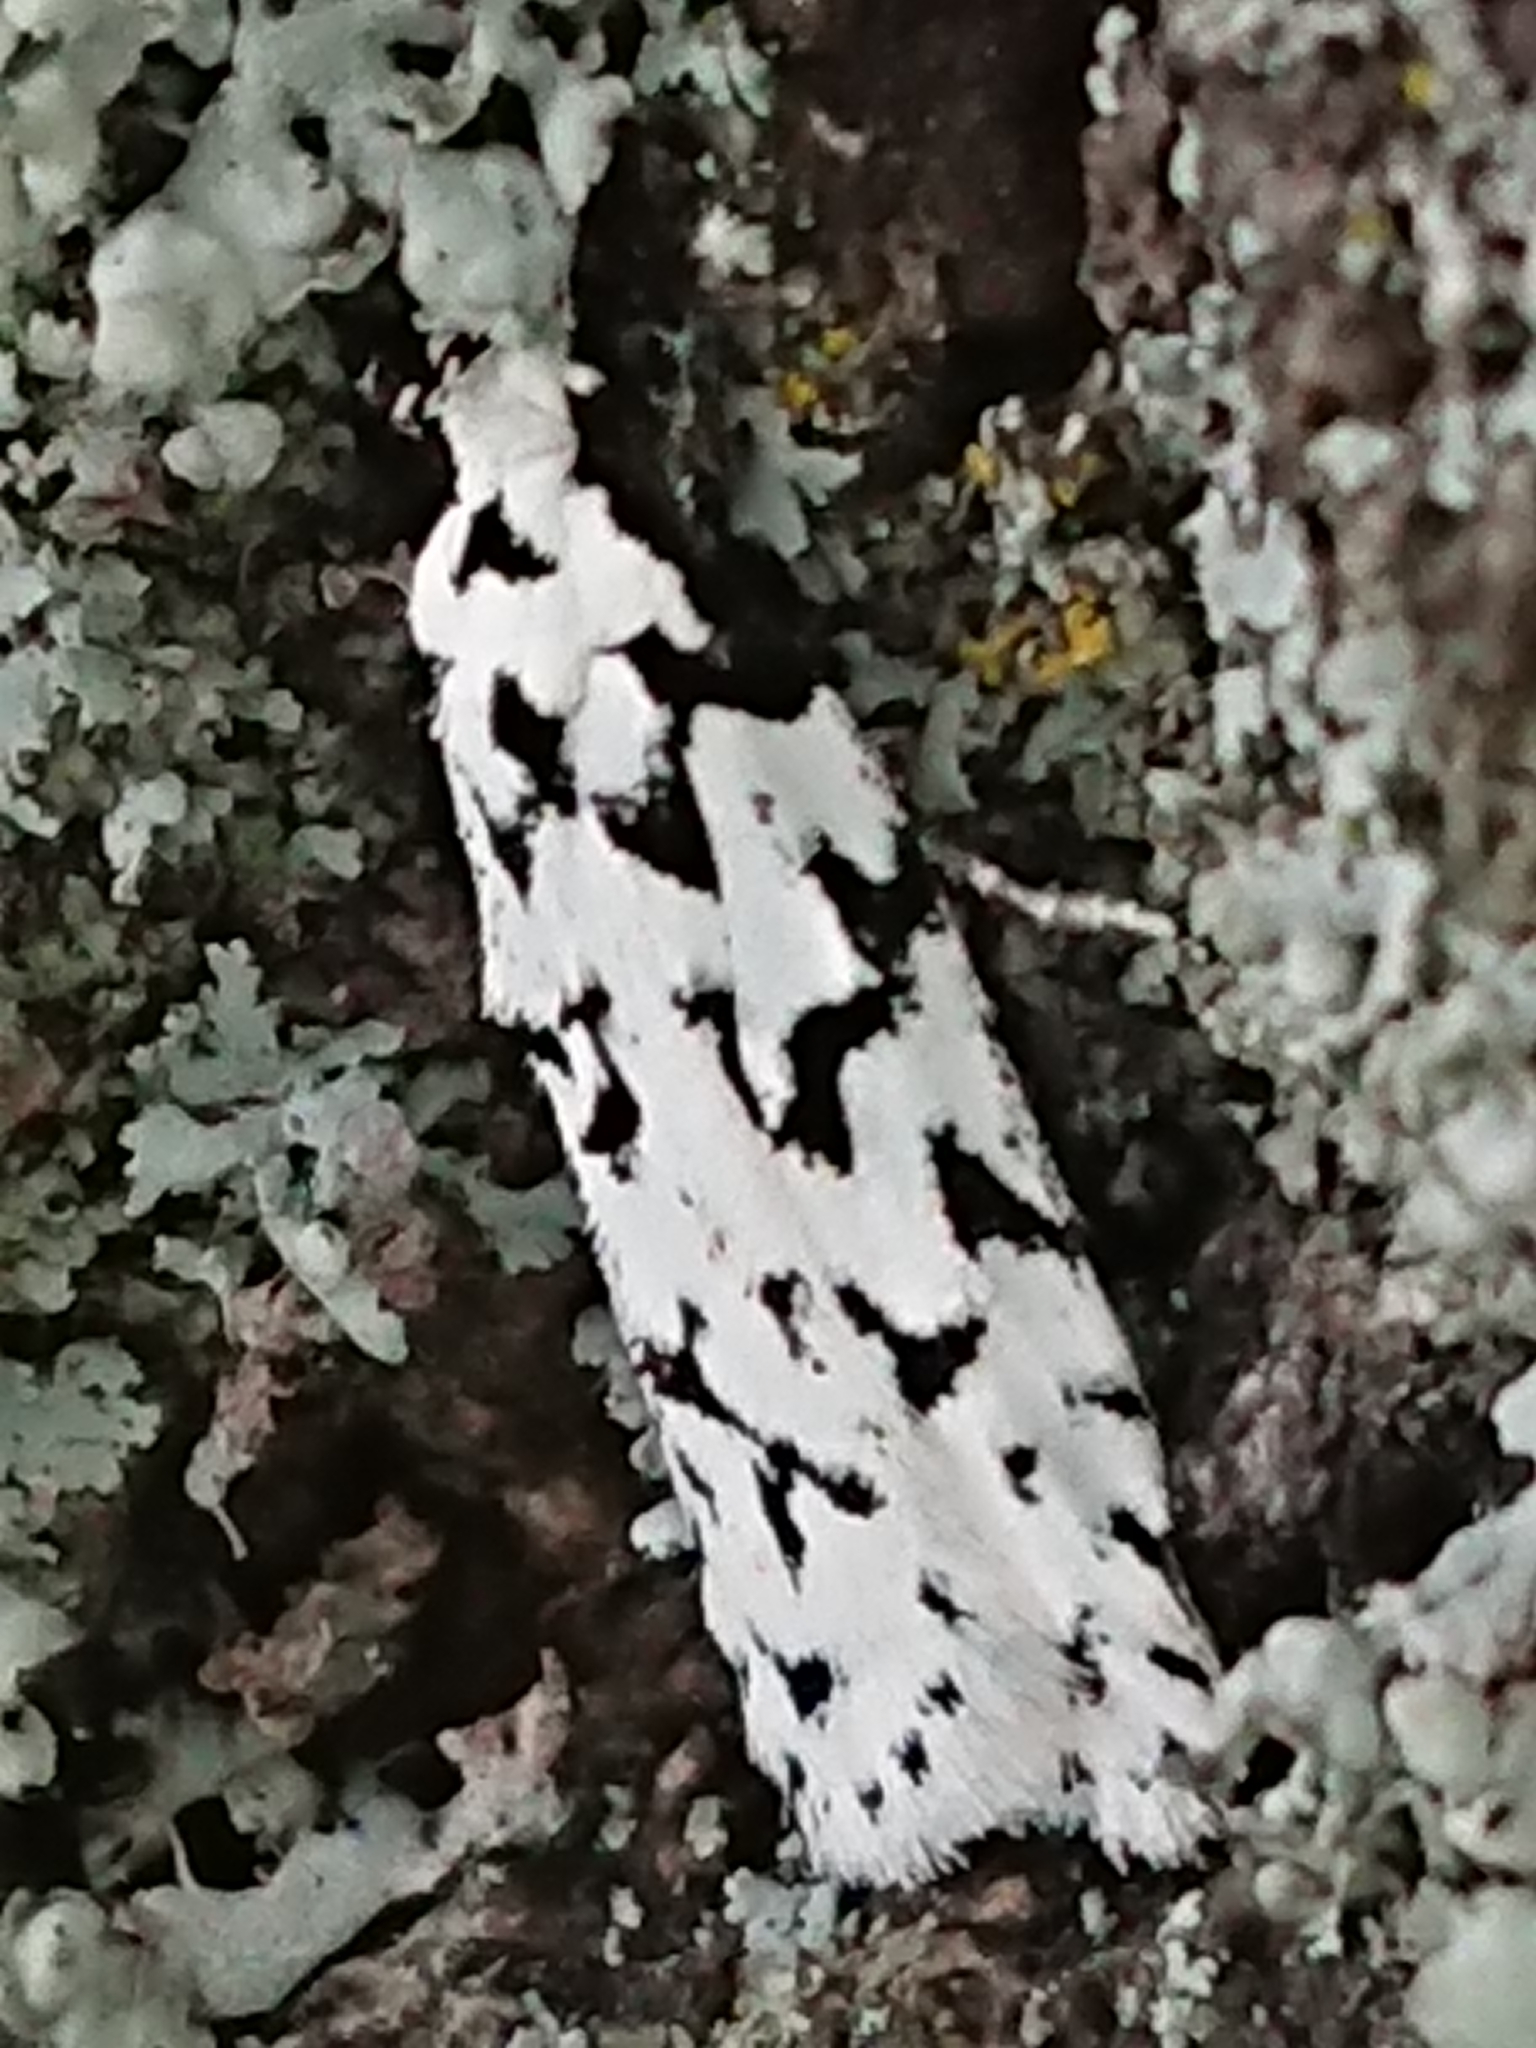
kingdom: Animalia
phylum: Arthropoda
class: Insecta
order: Lepidoptera
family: Oecophoridae
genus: Izatha
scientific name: Izatha katadiktya
